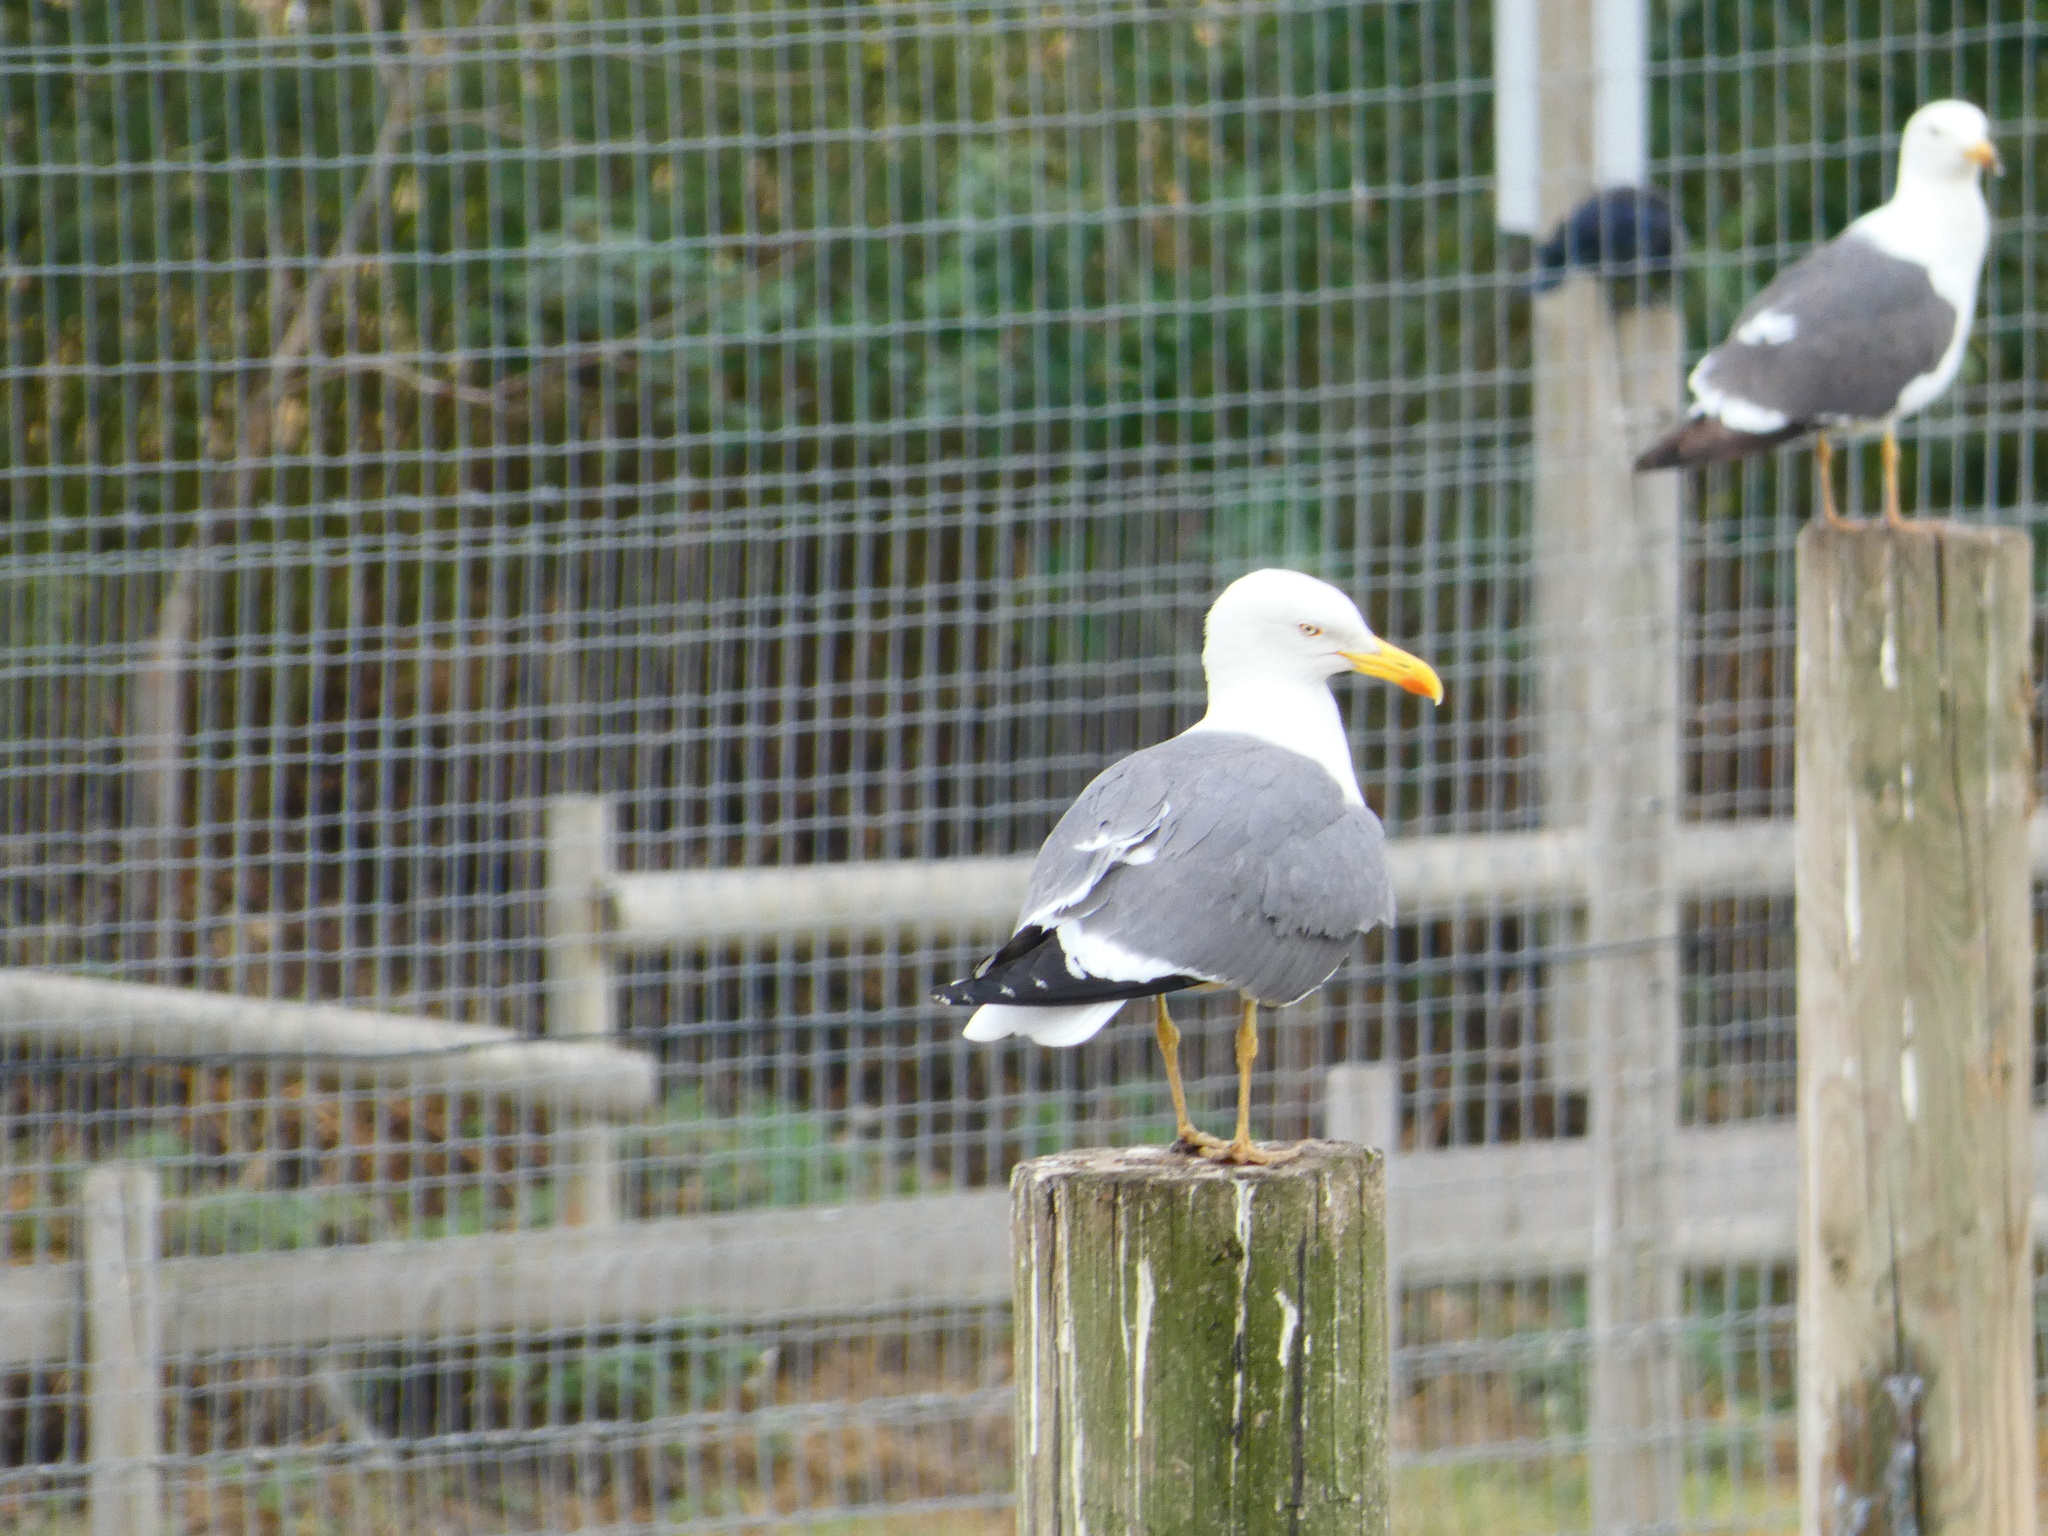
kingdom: Animalia
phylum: Chordata
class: Aves
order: Charadriiformes
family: Laridae
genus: Larus
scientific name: Larus fuscus
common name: Lesser black-backed gull
